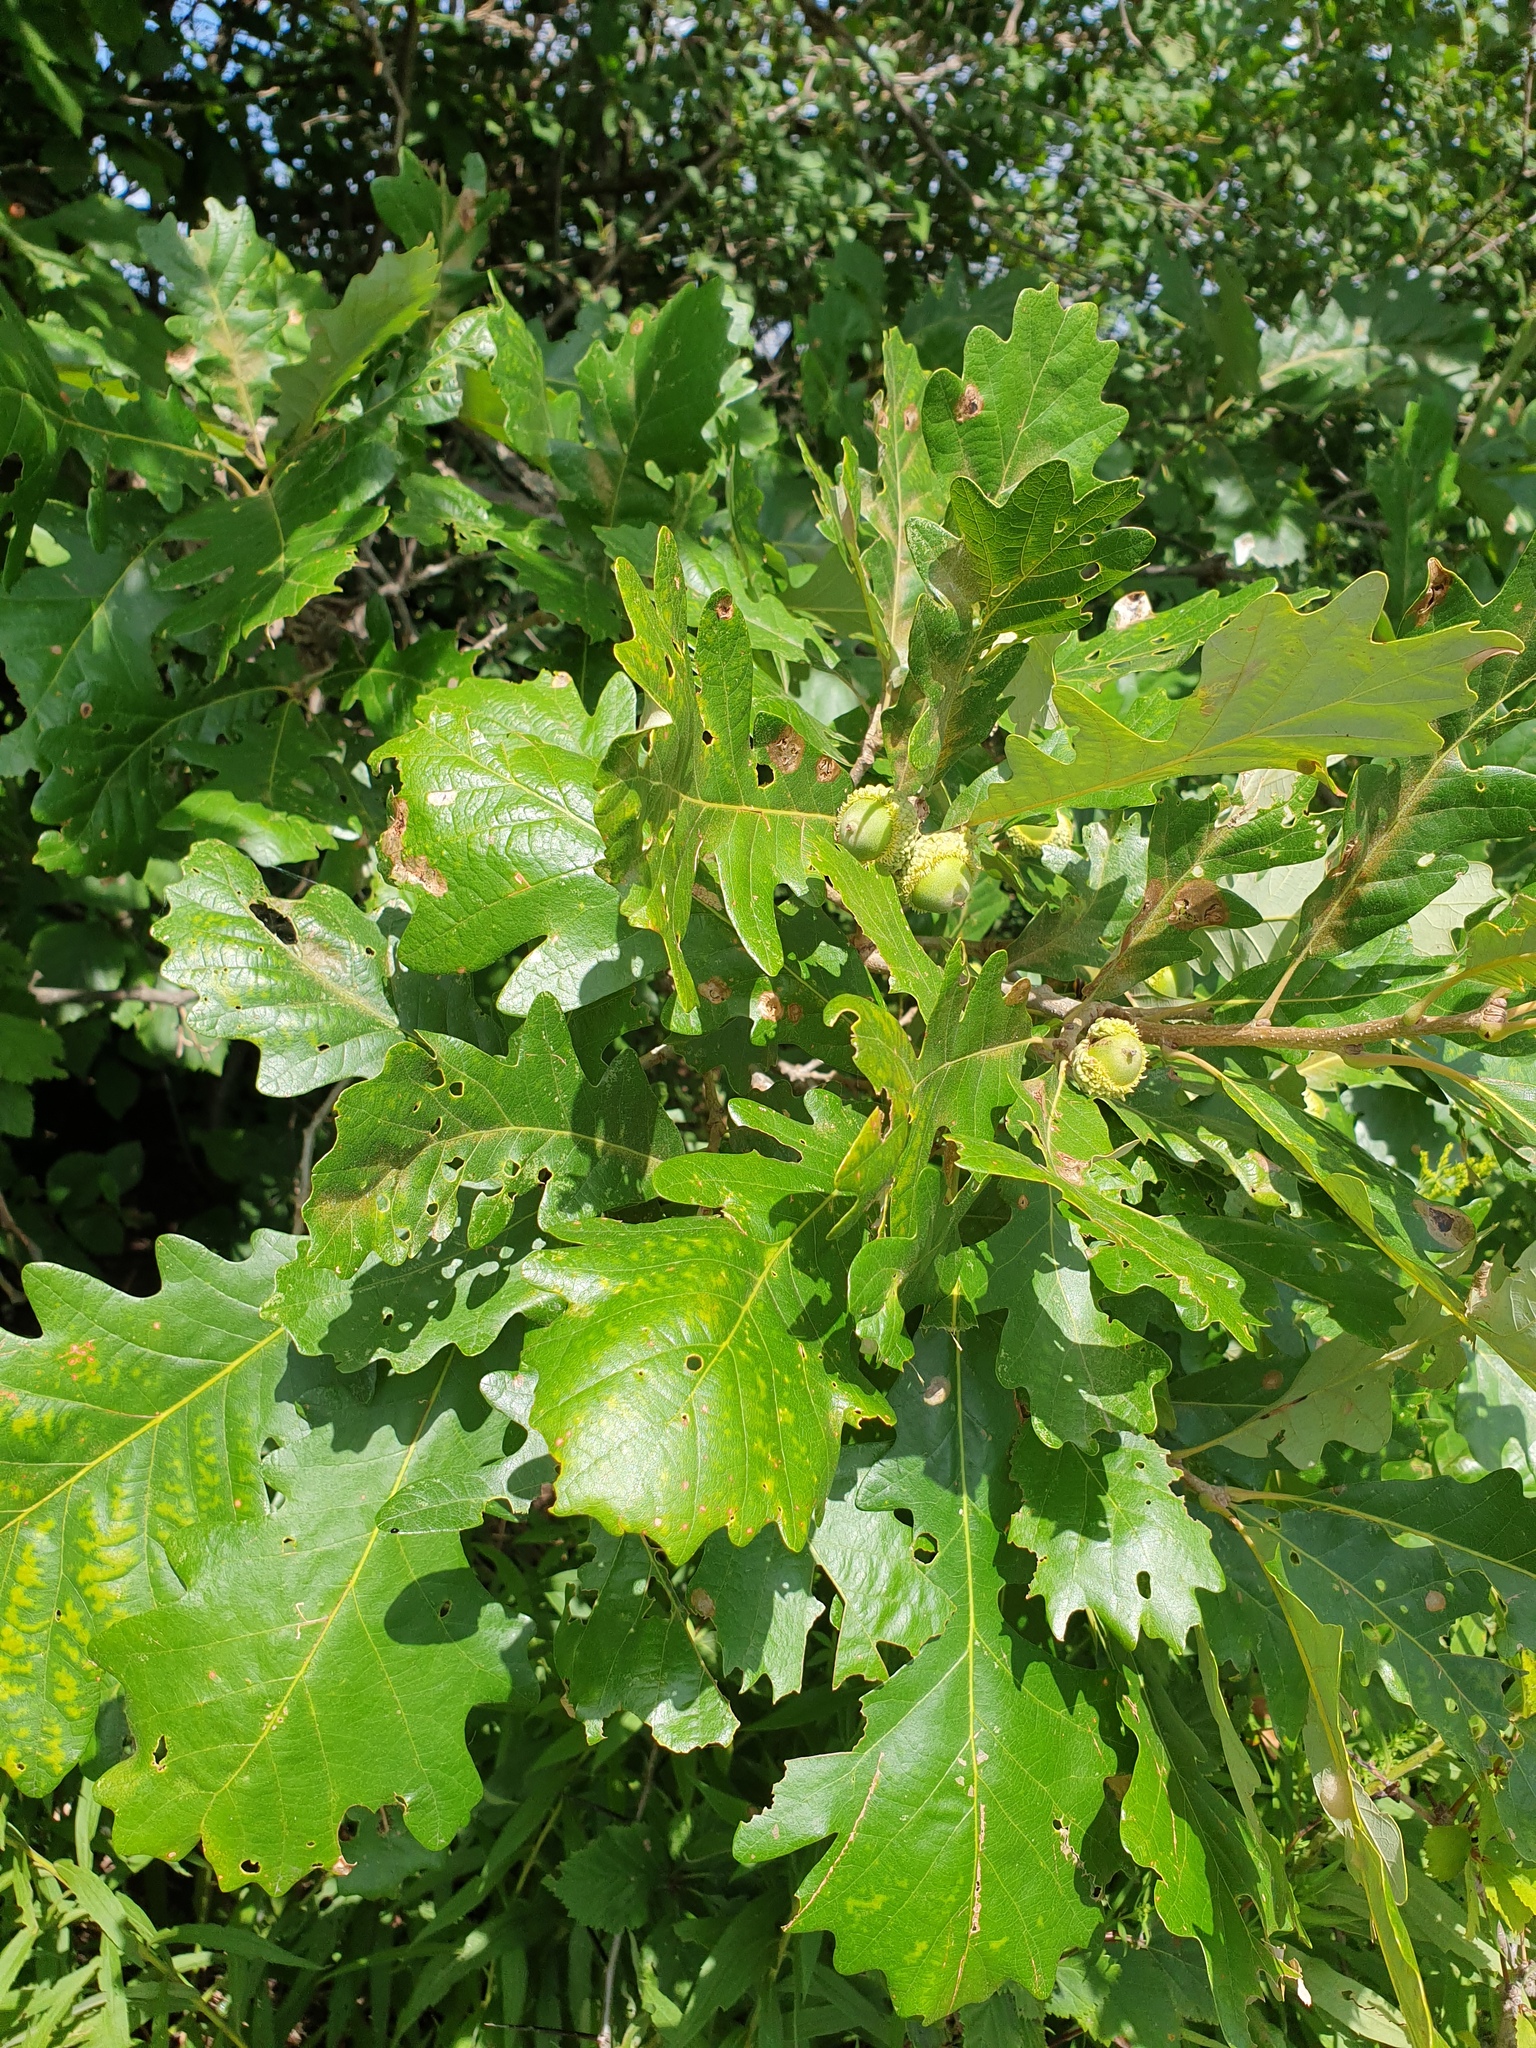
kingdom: Plantae
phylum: Tracheophyta
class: Magnoliopsida
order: Fagales
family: Fagaceae
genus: Quercus
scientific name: Quercus macrocarpa
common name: Bur oak
